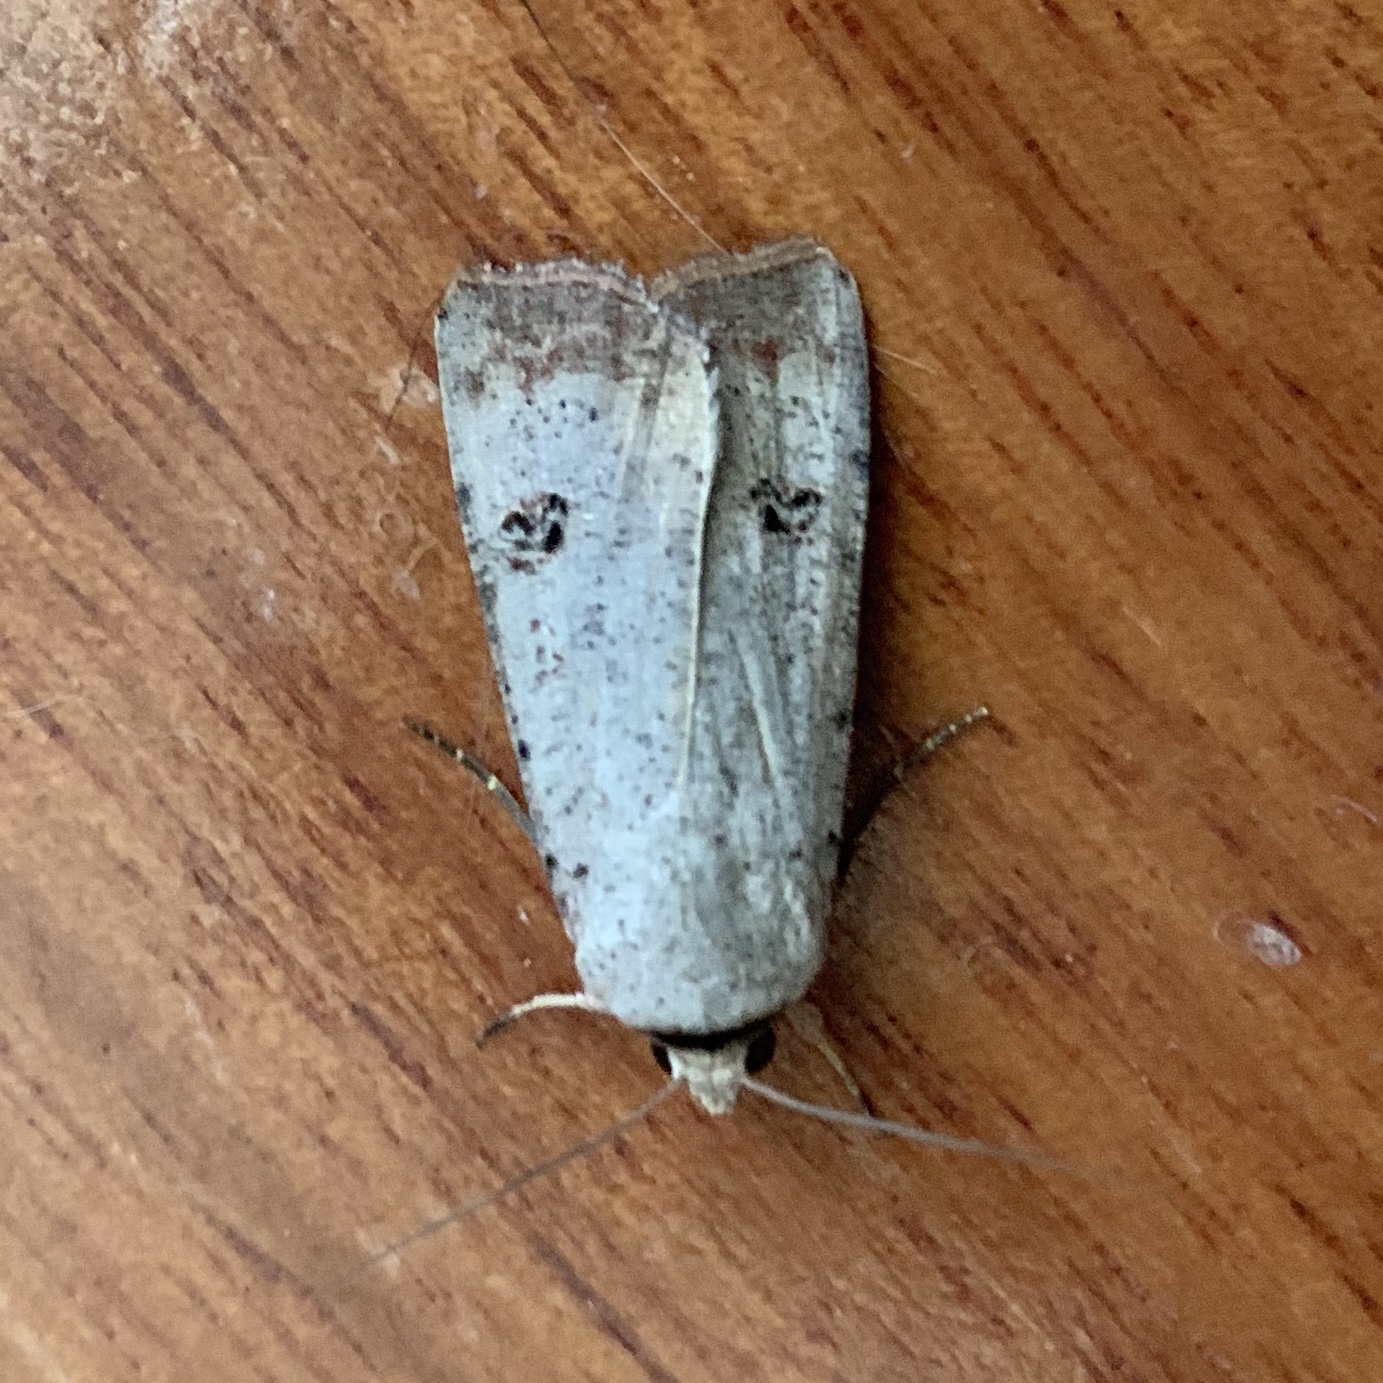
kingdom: Animalia
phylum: Arthropoda
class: Insecta
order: Lepidoptera
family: Noctuidae
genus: Anicla
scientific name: Anicla infecta
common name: Green cutworm
